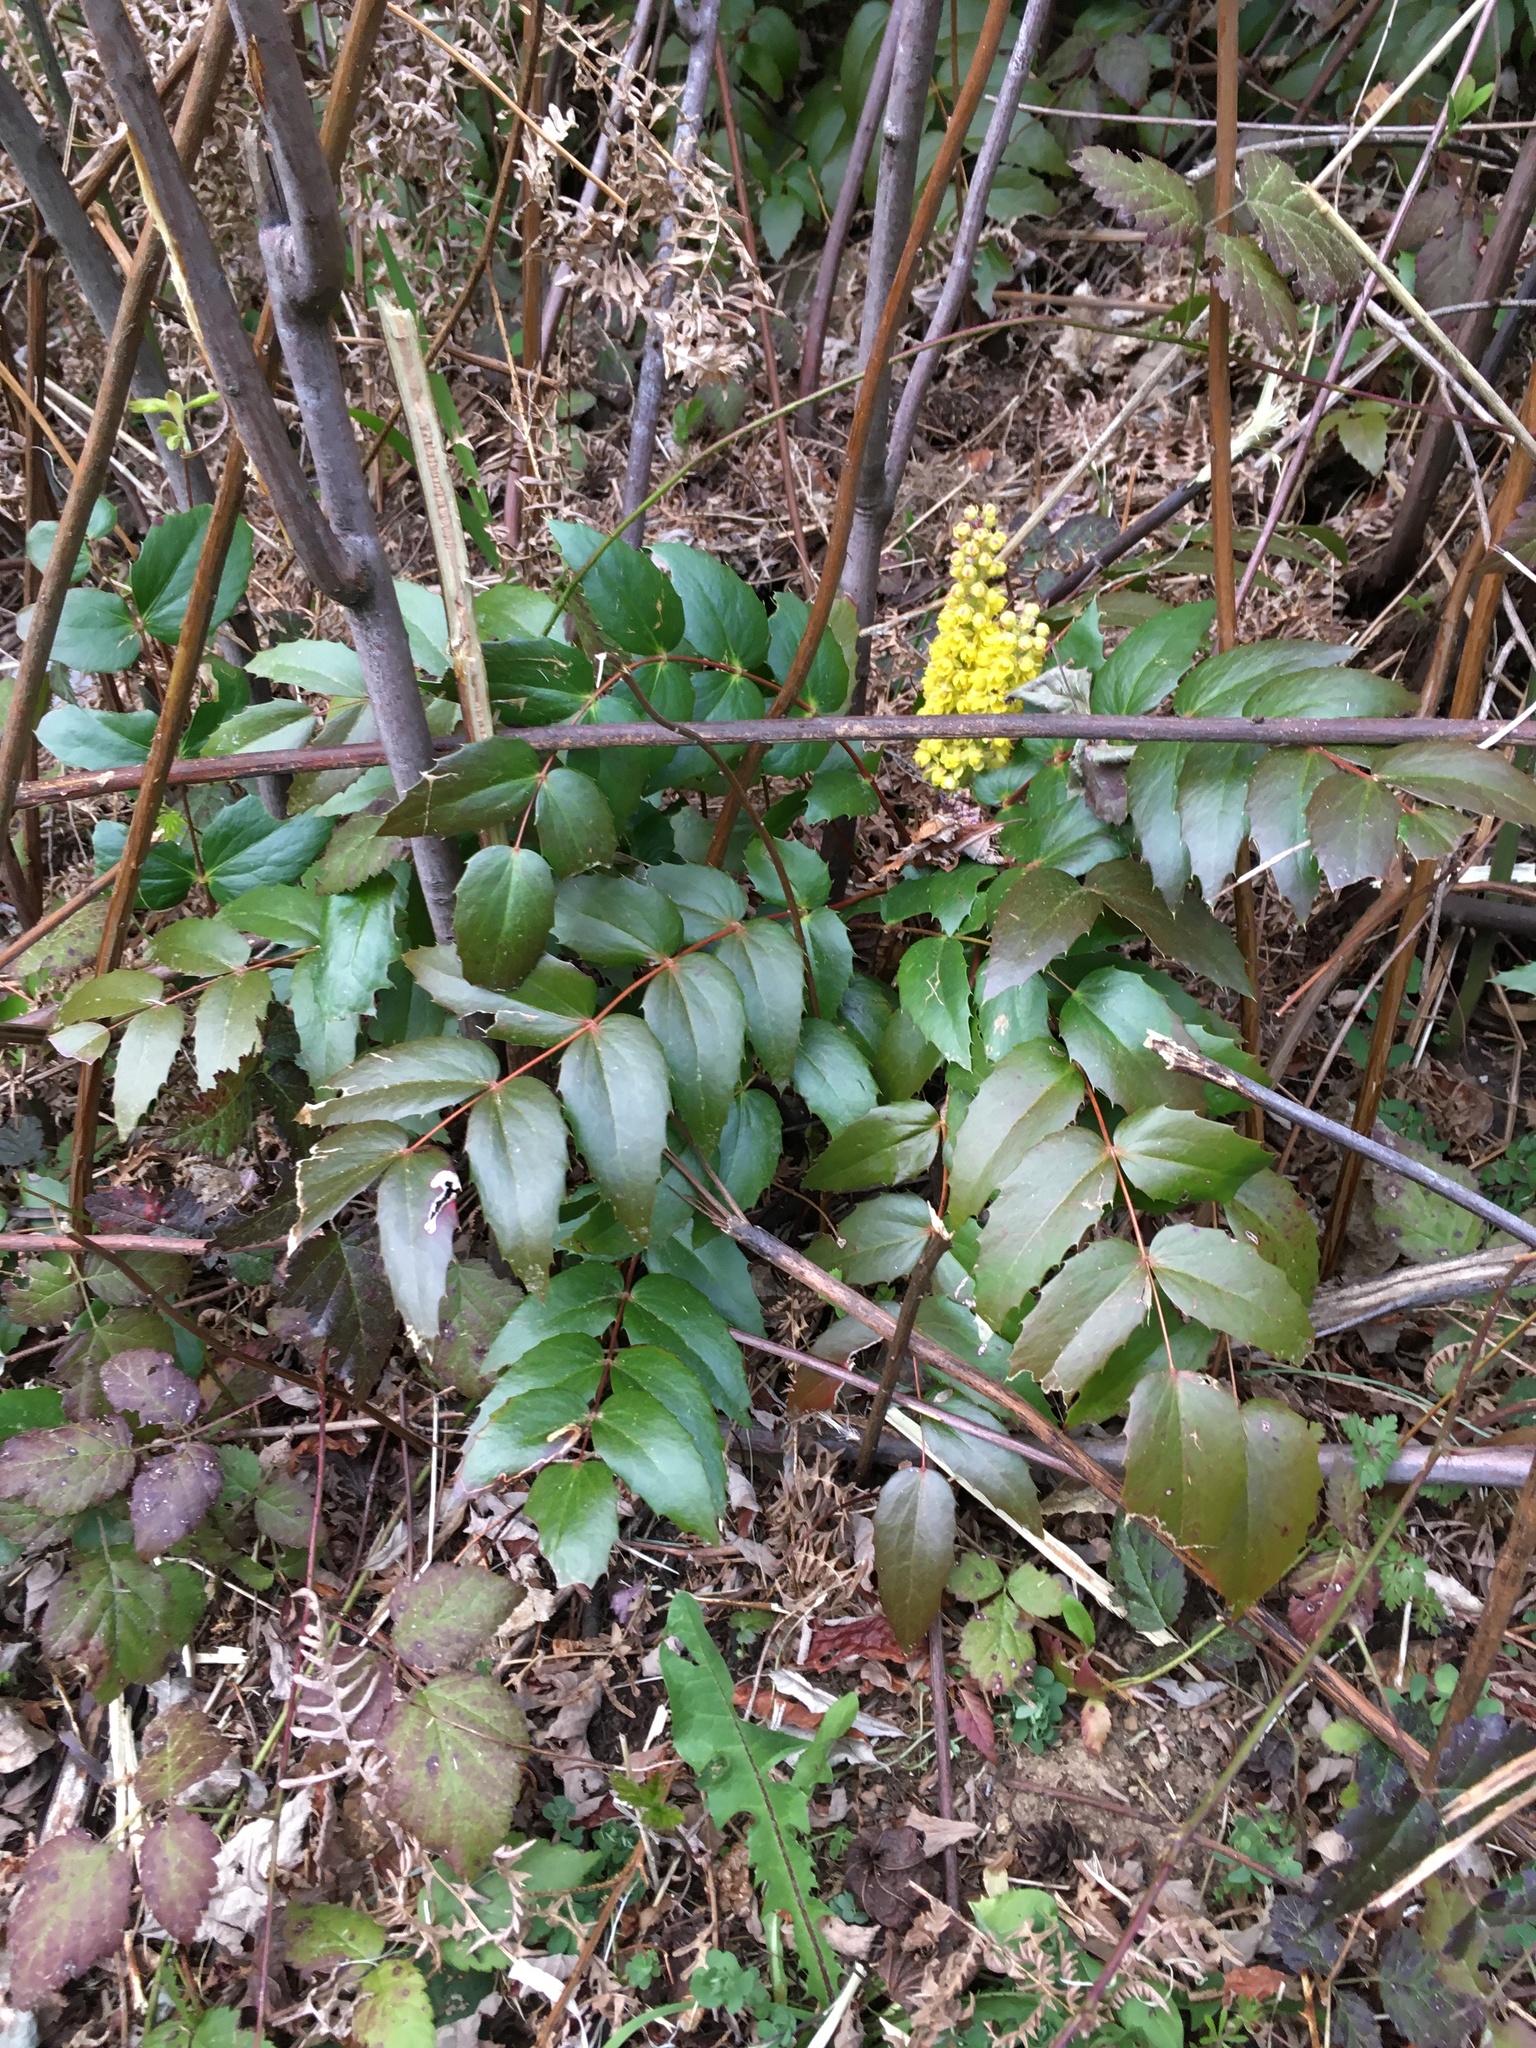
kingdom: Plantae
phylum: Tracheophyta
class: Magnoliopsida
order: Ranunculales
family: Berberidaceae
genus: Mahonia
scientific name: Mahonia nervosa
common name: Cascade oregon-grape
